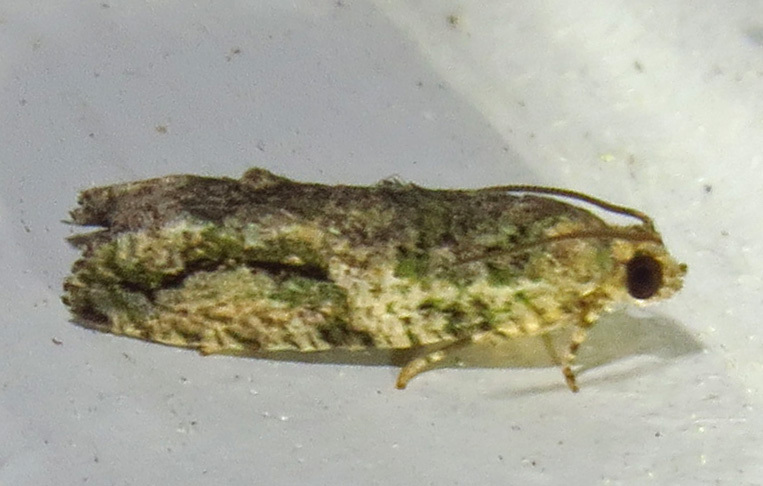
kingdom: Animalia
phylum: Arthropoda
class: Insecta
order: Lepidoptera
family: Tortricidae
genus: Proteoteras
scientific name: Proteoteras aesculana
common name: Maple twig borer moth
